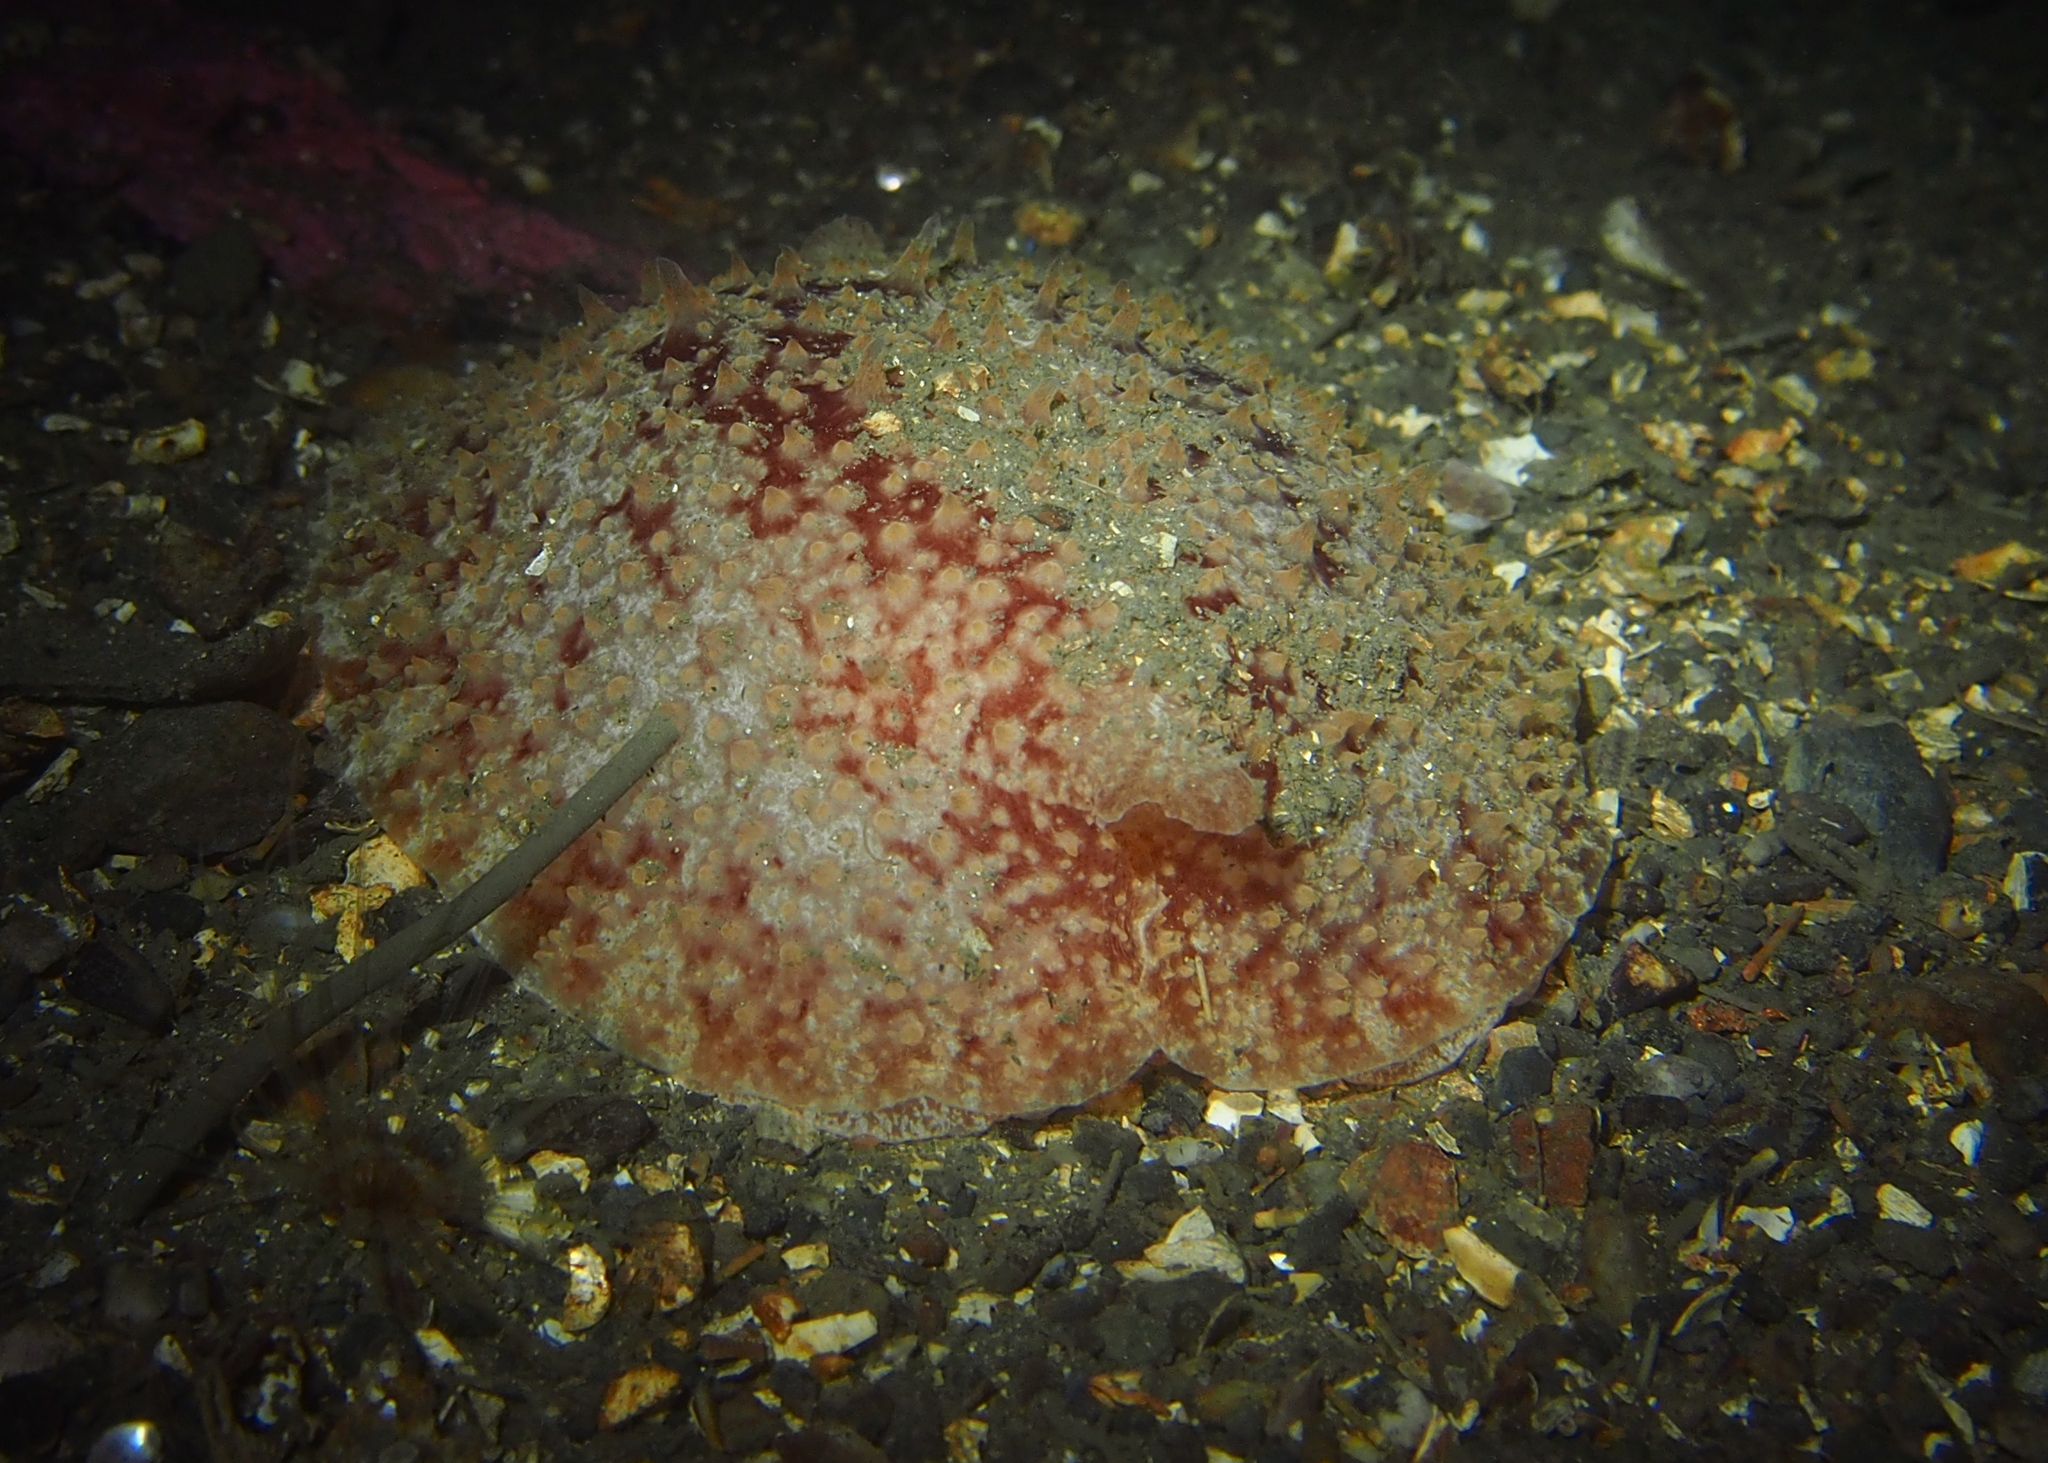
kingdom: Animalia
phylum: Mollusca
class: Gastropoda
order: Pleurobranchida
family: Pleurobranchidae
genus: Pleurobranchus
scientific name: Pleurobranchus membranaceus
